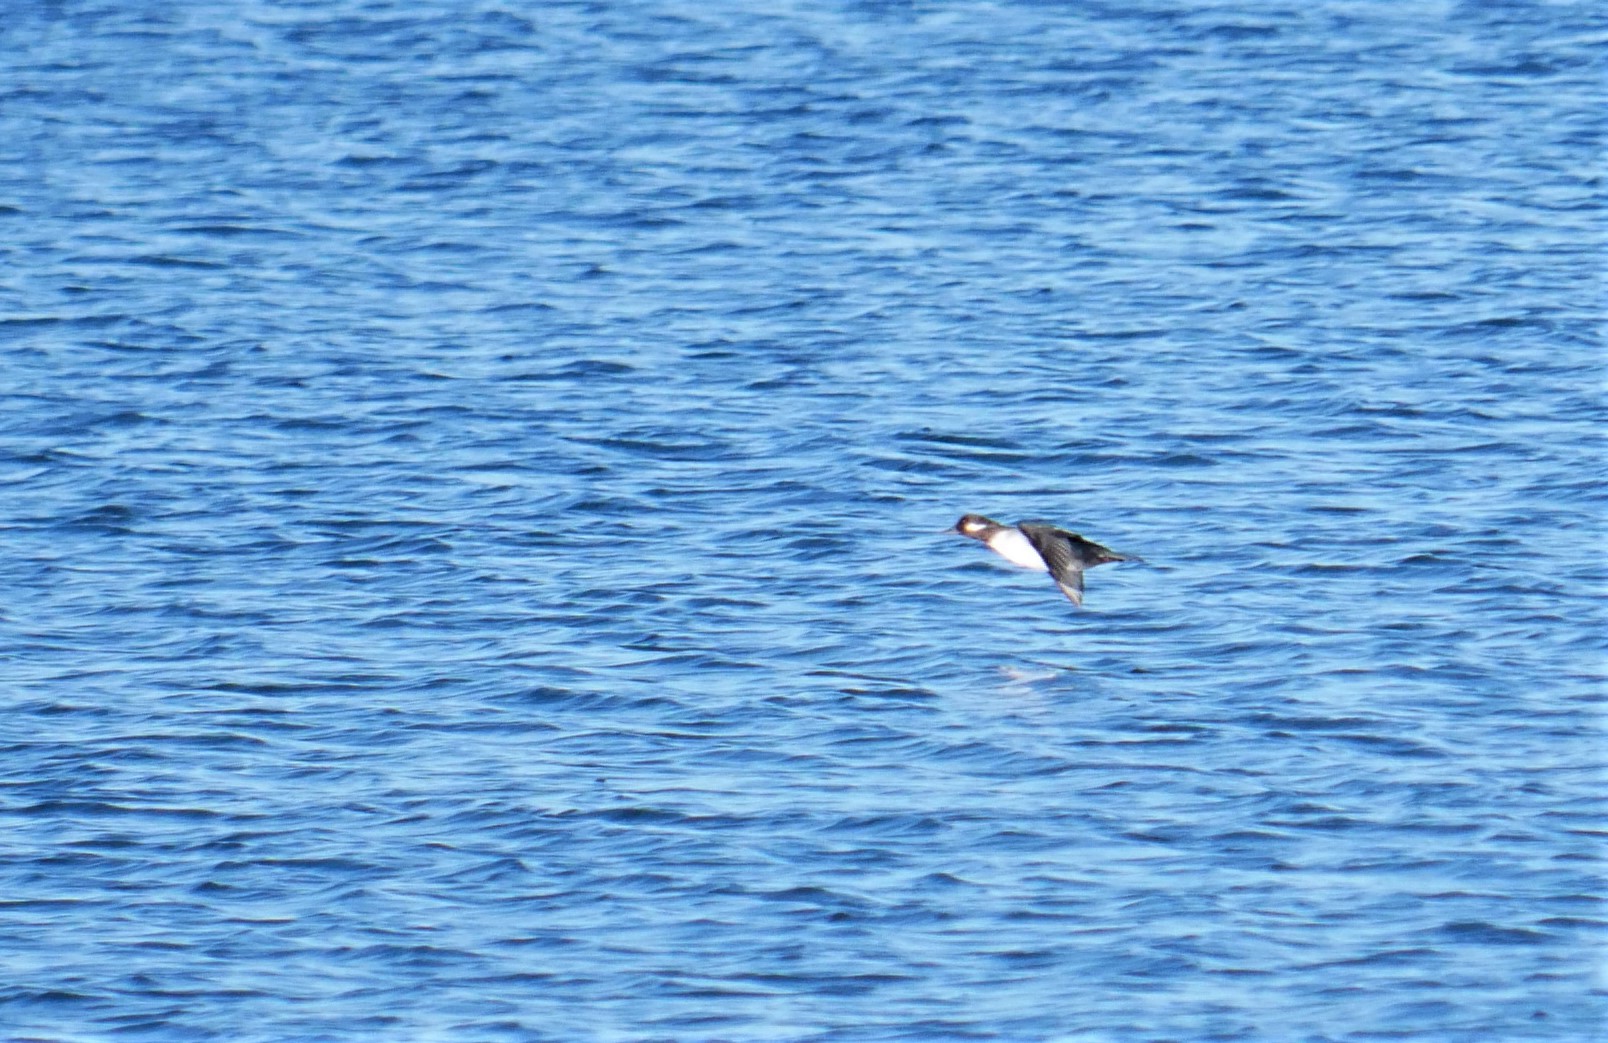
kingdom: Animalia
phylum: Chordata
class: Aves
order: Anseriformes
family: Anatidae
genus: Bucephala
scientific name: Bucephala albeola
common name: Bufflehead
